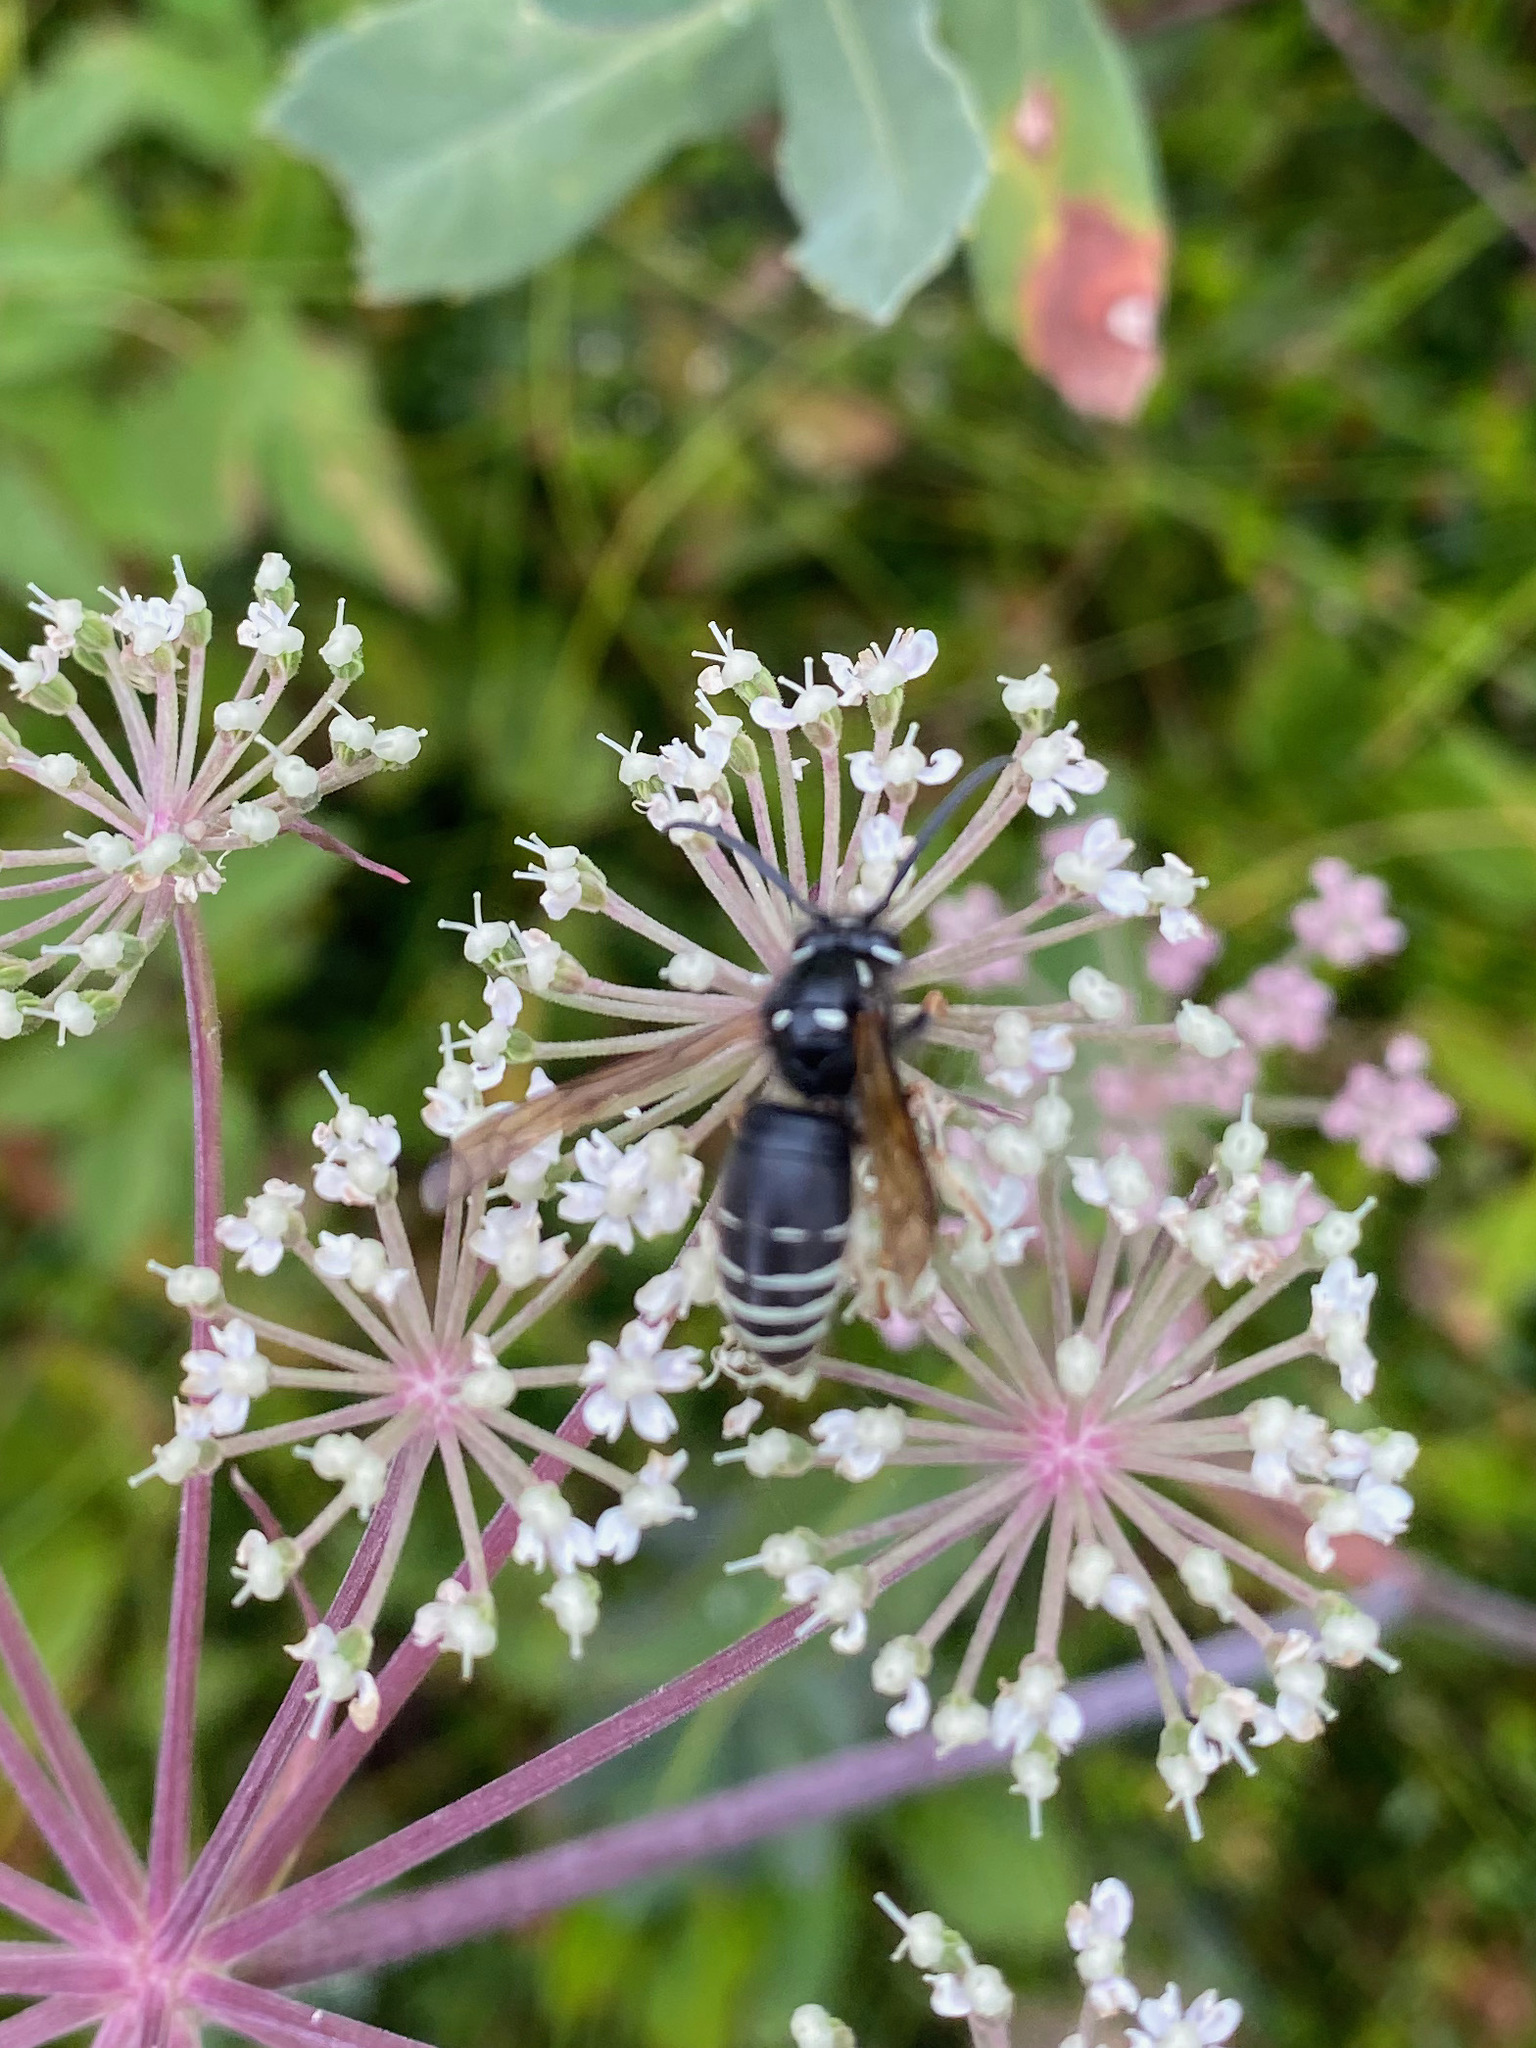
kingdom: Animalia
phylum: Arthropoda
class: Insecta
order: Hymenoptera
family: Vespidae
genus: Vespula
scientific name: Vespula consobrina
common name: Blackjacket
